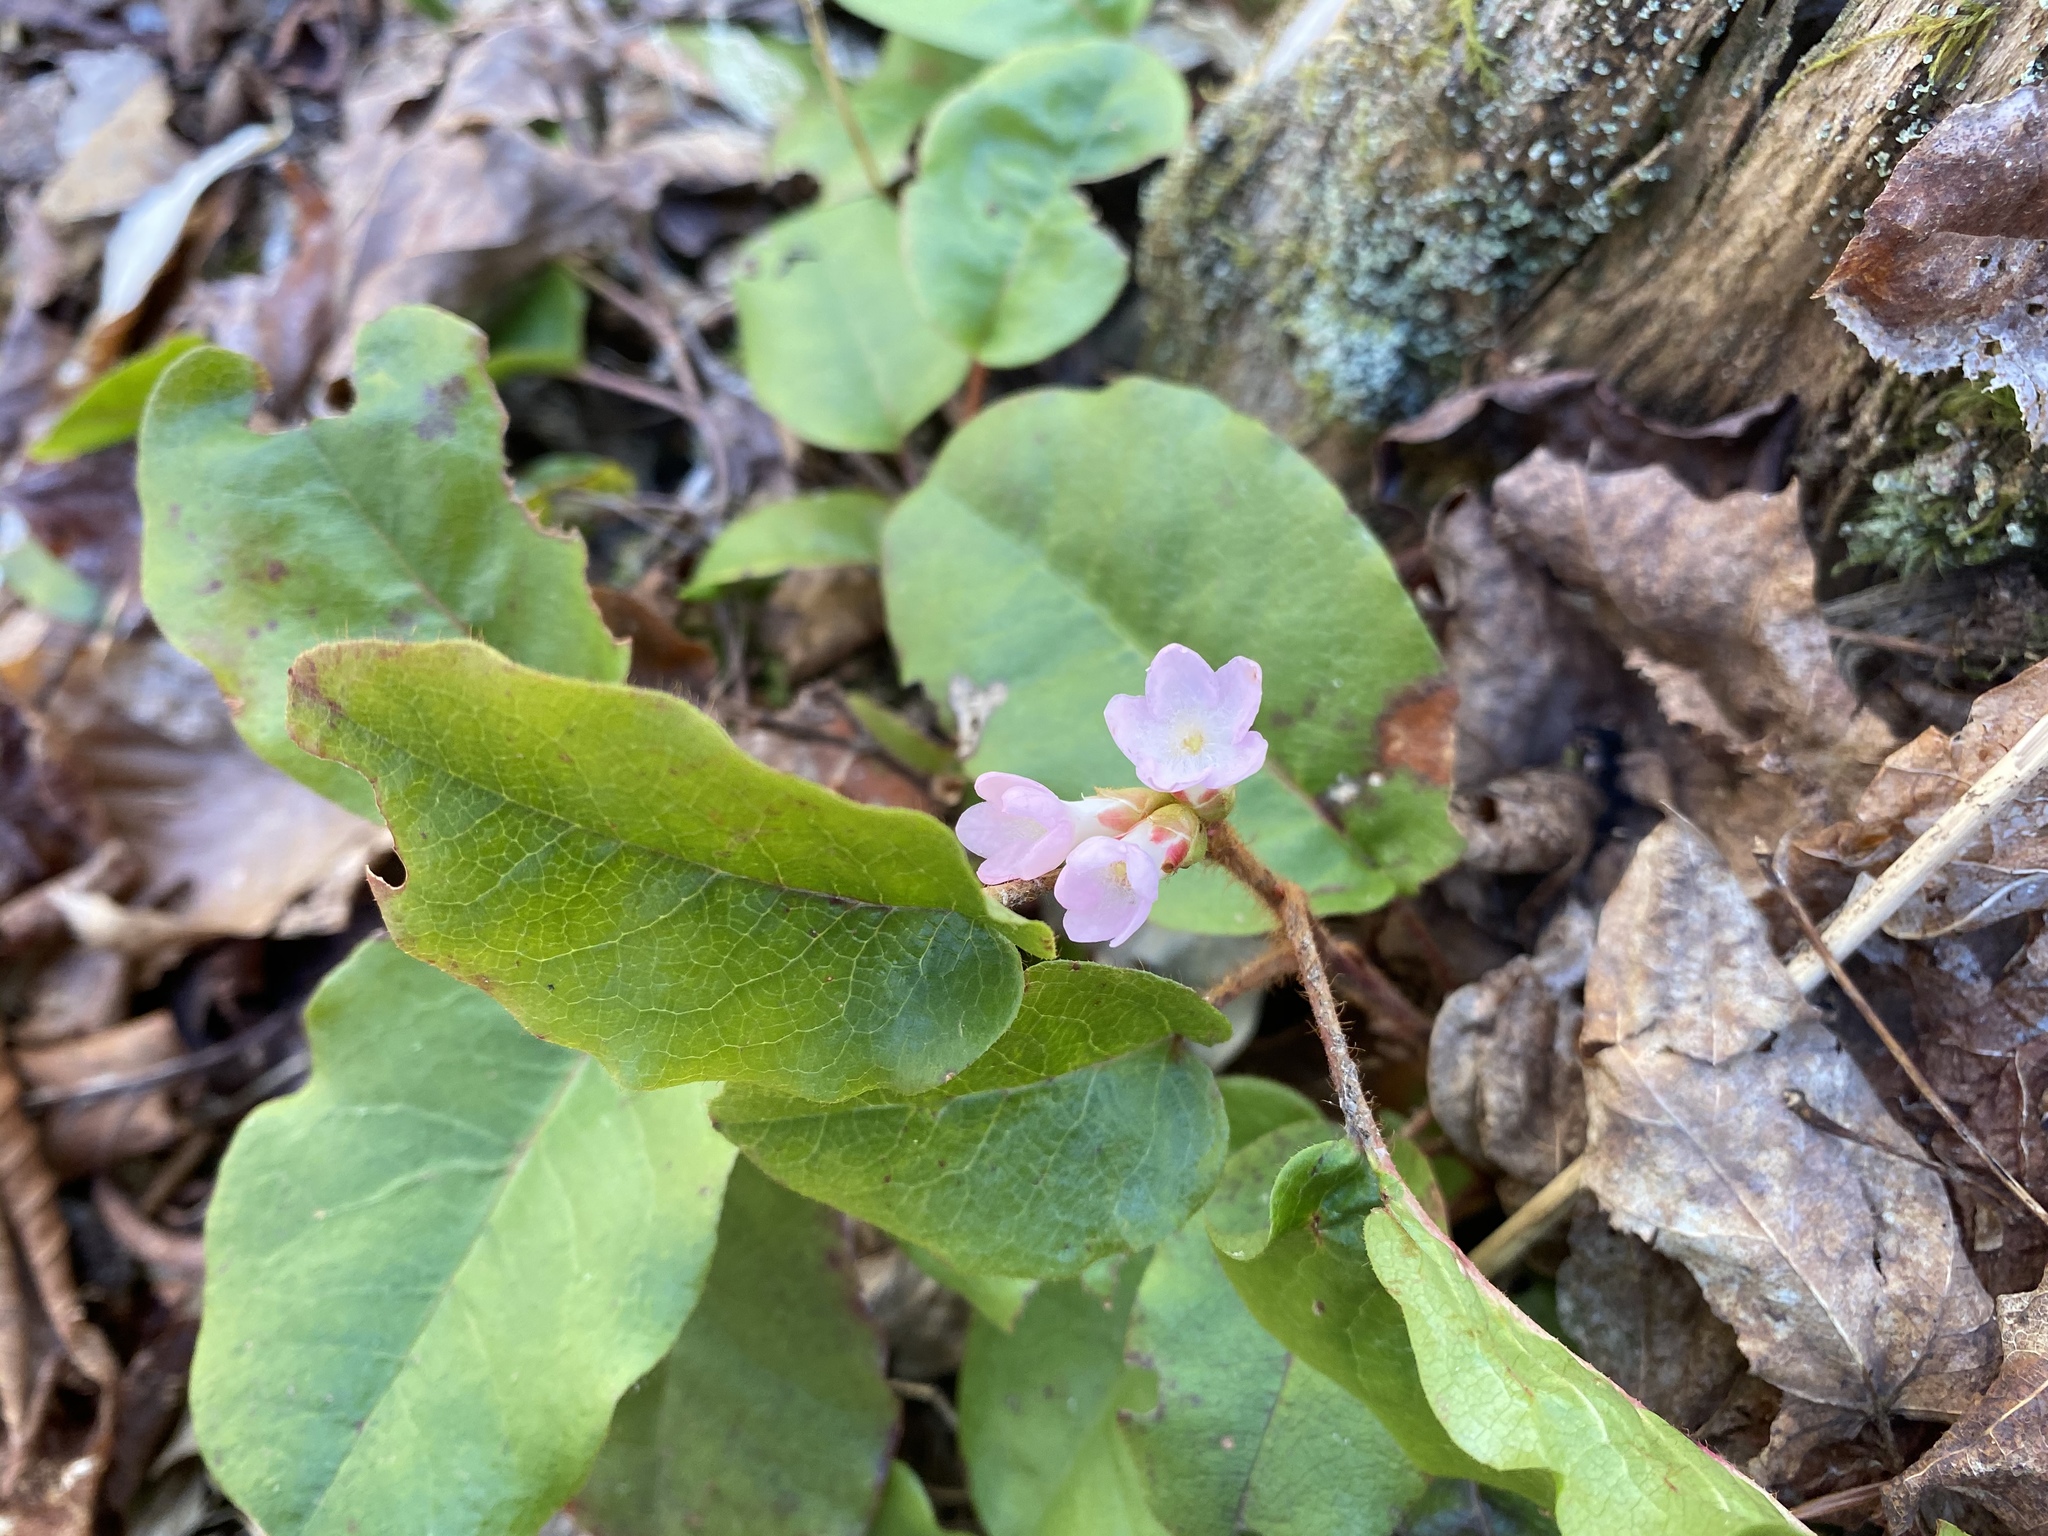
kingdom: Plantae
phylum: Tracheophyta
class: Magnoliopsida
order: Ericales
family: Ericaceae
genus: Epigaea
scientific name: Epigaea repens
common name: Gravelroot
